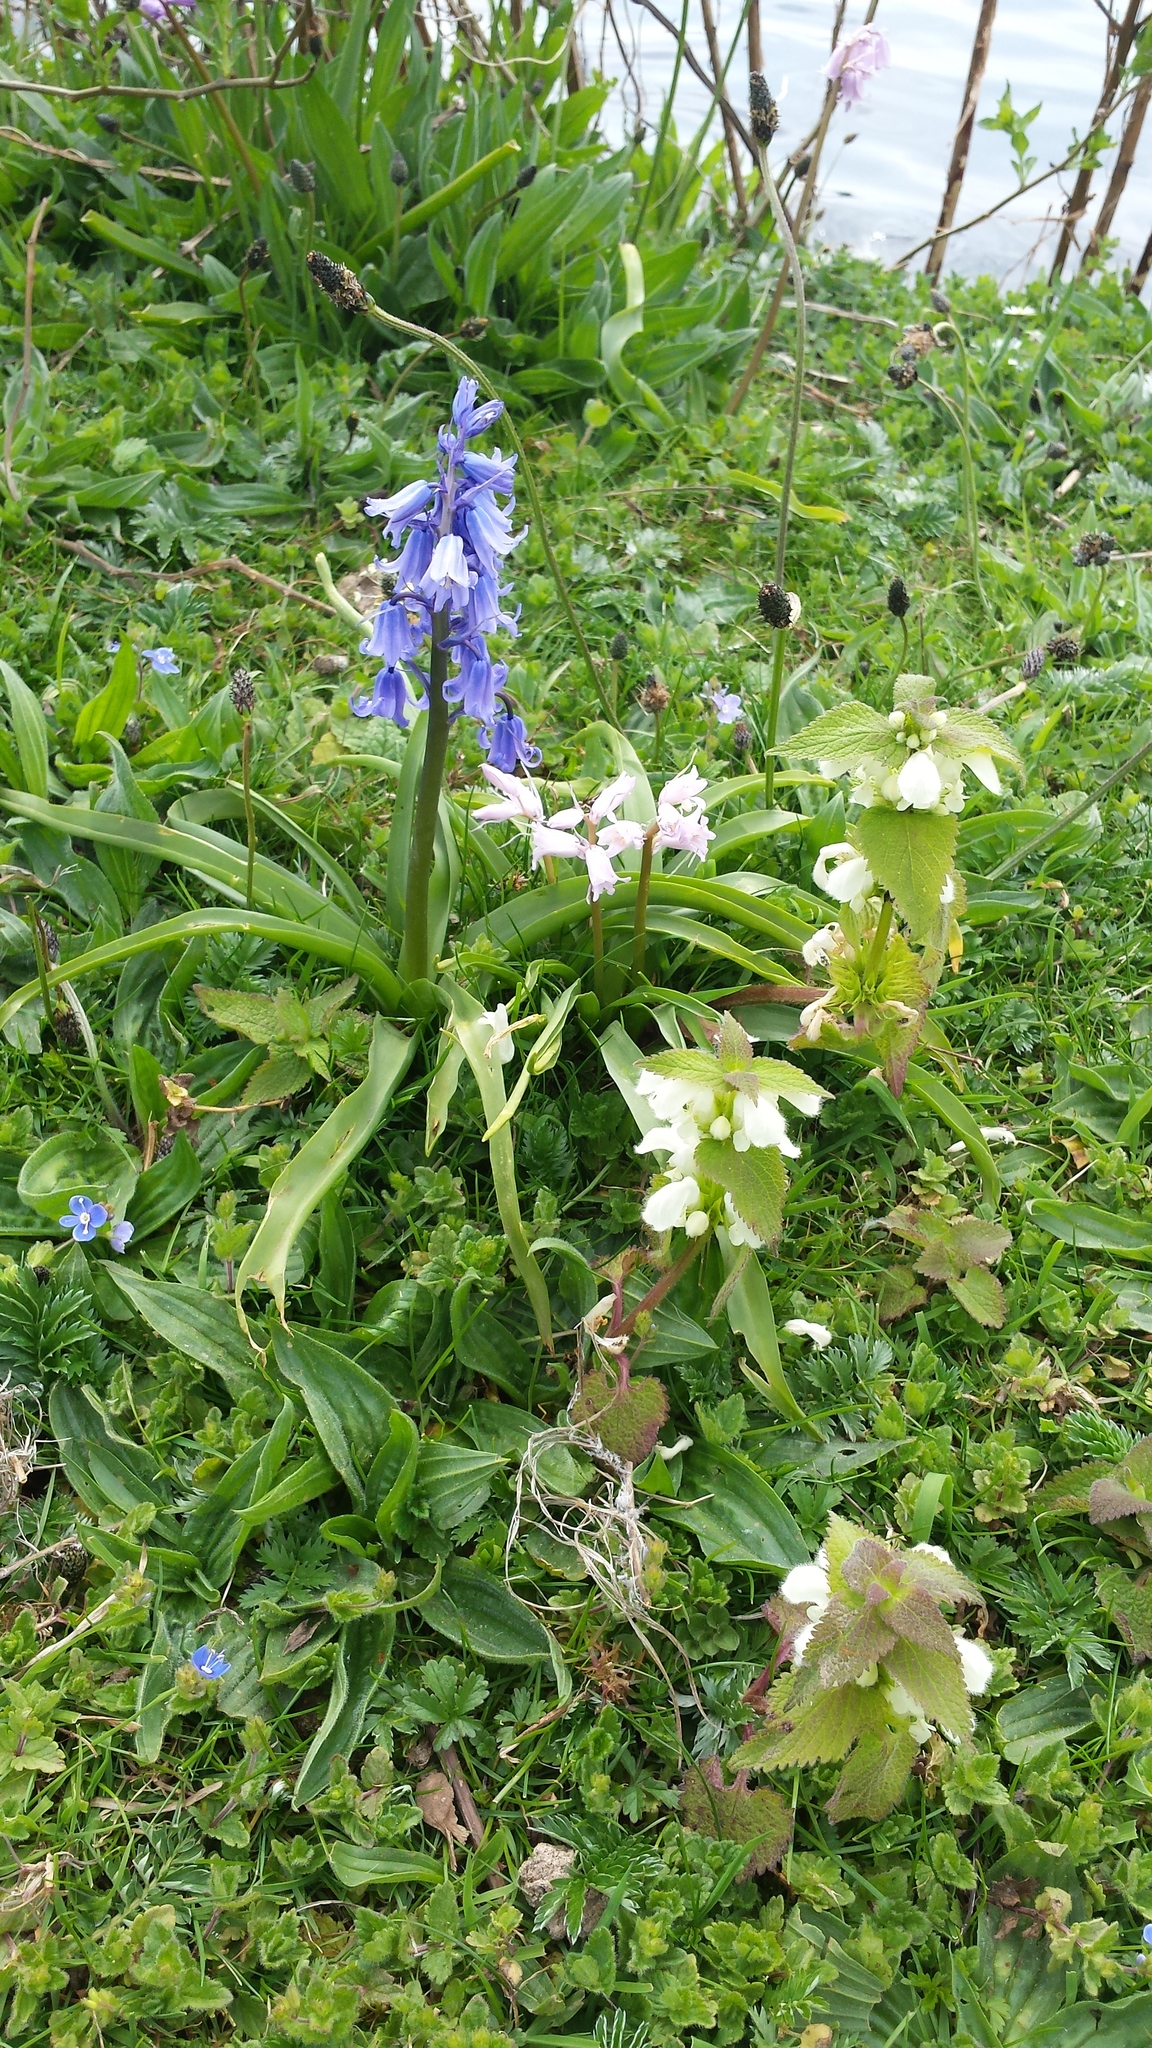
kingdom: Plantae
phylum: Tracheophyta
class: Liliopsida
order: Asparagales
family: Asparagaceae
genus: Hyacinthoides
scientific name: Hyacinthoides massartiana
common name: Hyacinthoides
